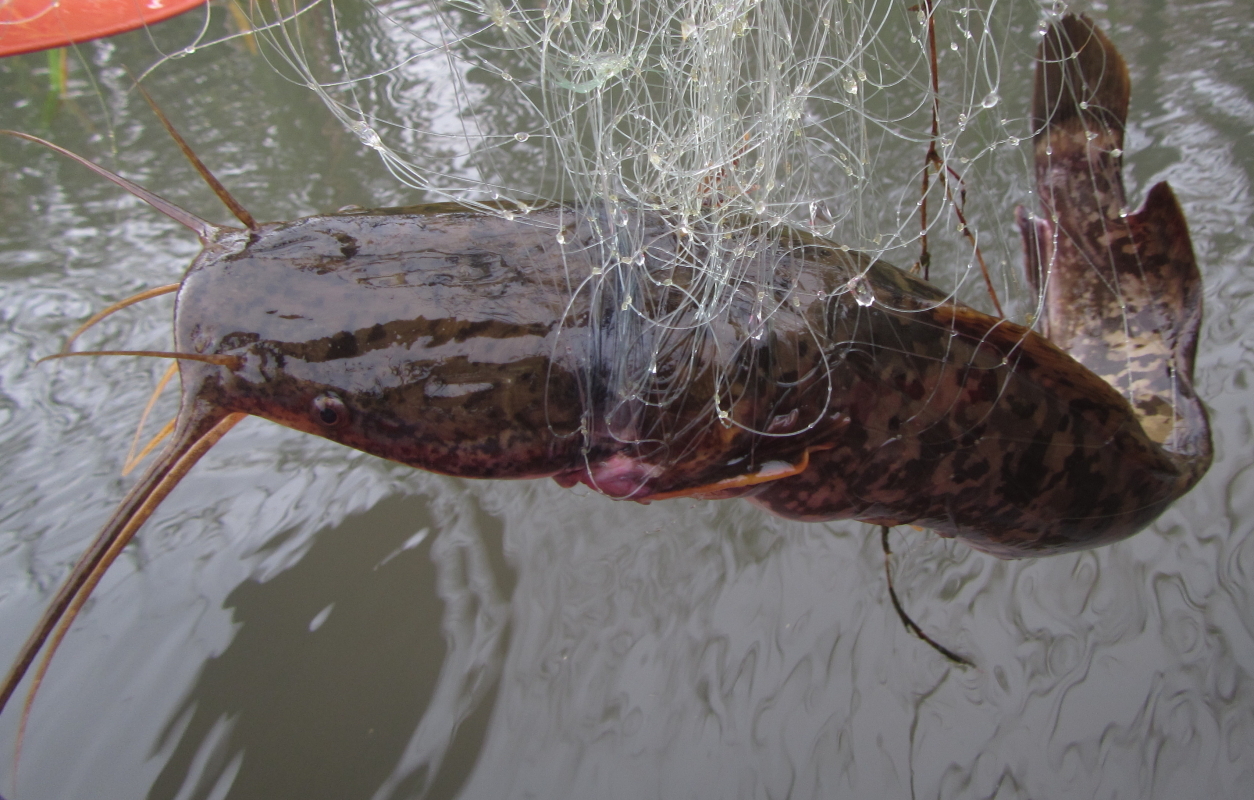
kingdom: Animalia
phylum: Chordata
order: Siluriformes
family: Clariidae
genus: Clarias
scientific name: Clarias gariepinus
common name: African catfish
